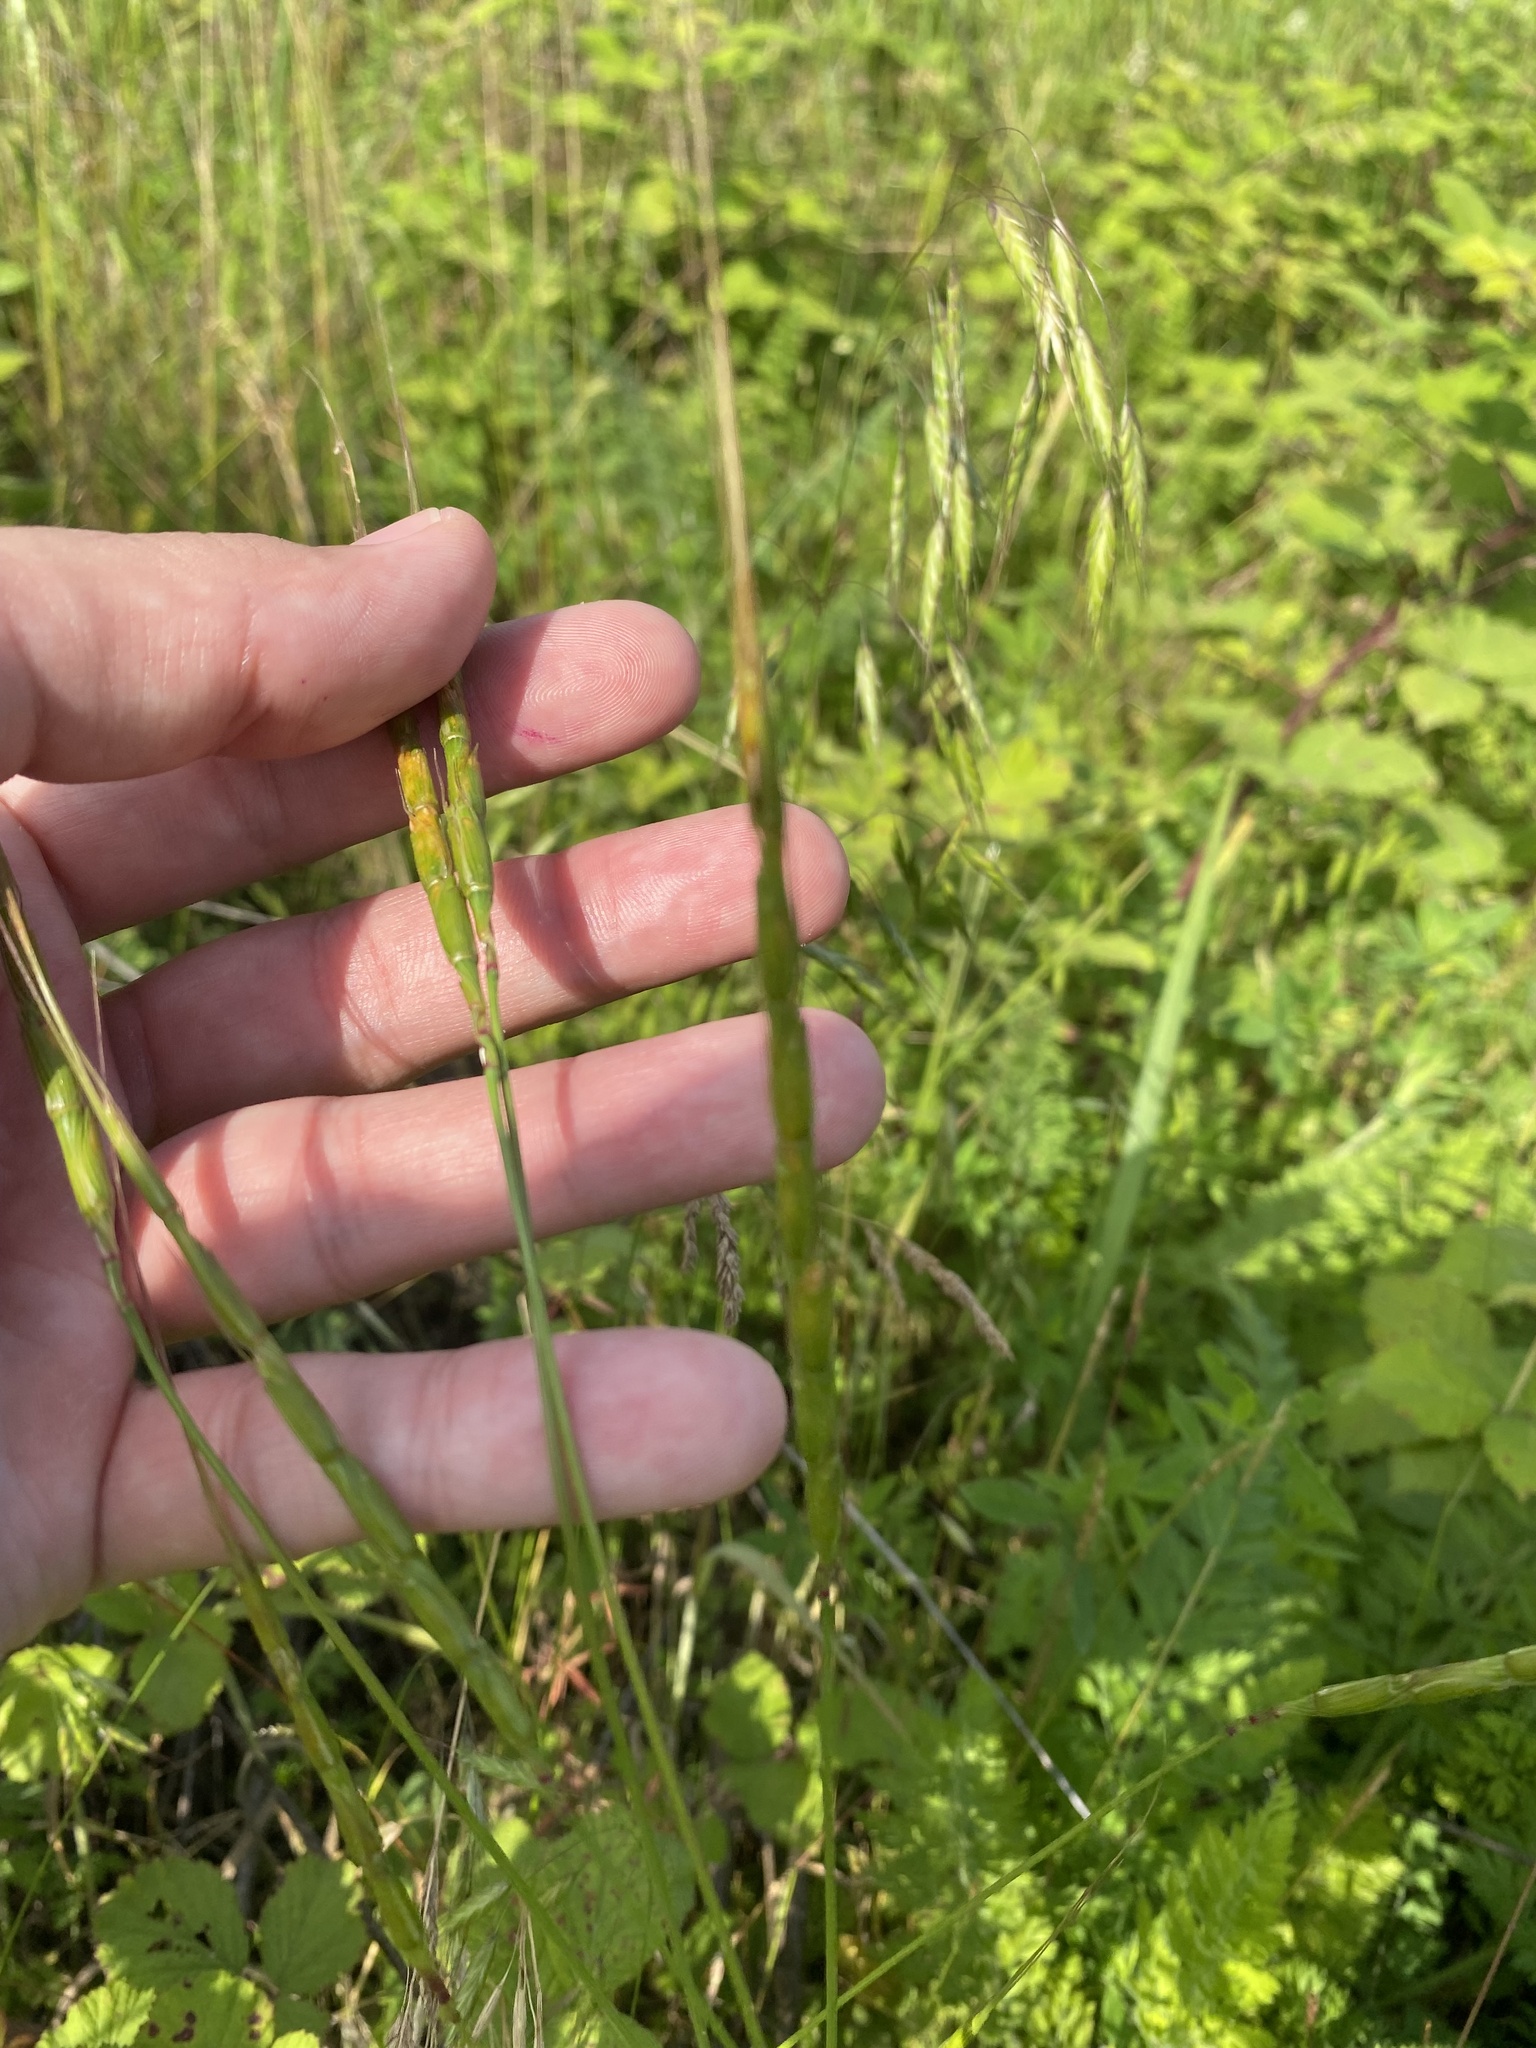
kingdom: Plantae
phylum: Tracheophyta
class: Liliopsida
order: Poales
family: Poaceae
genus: Aegilops
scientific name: Aegilops cylindrica
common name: Jointed goatgrass
